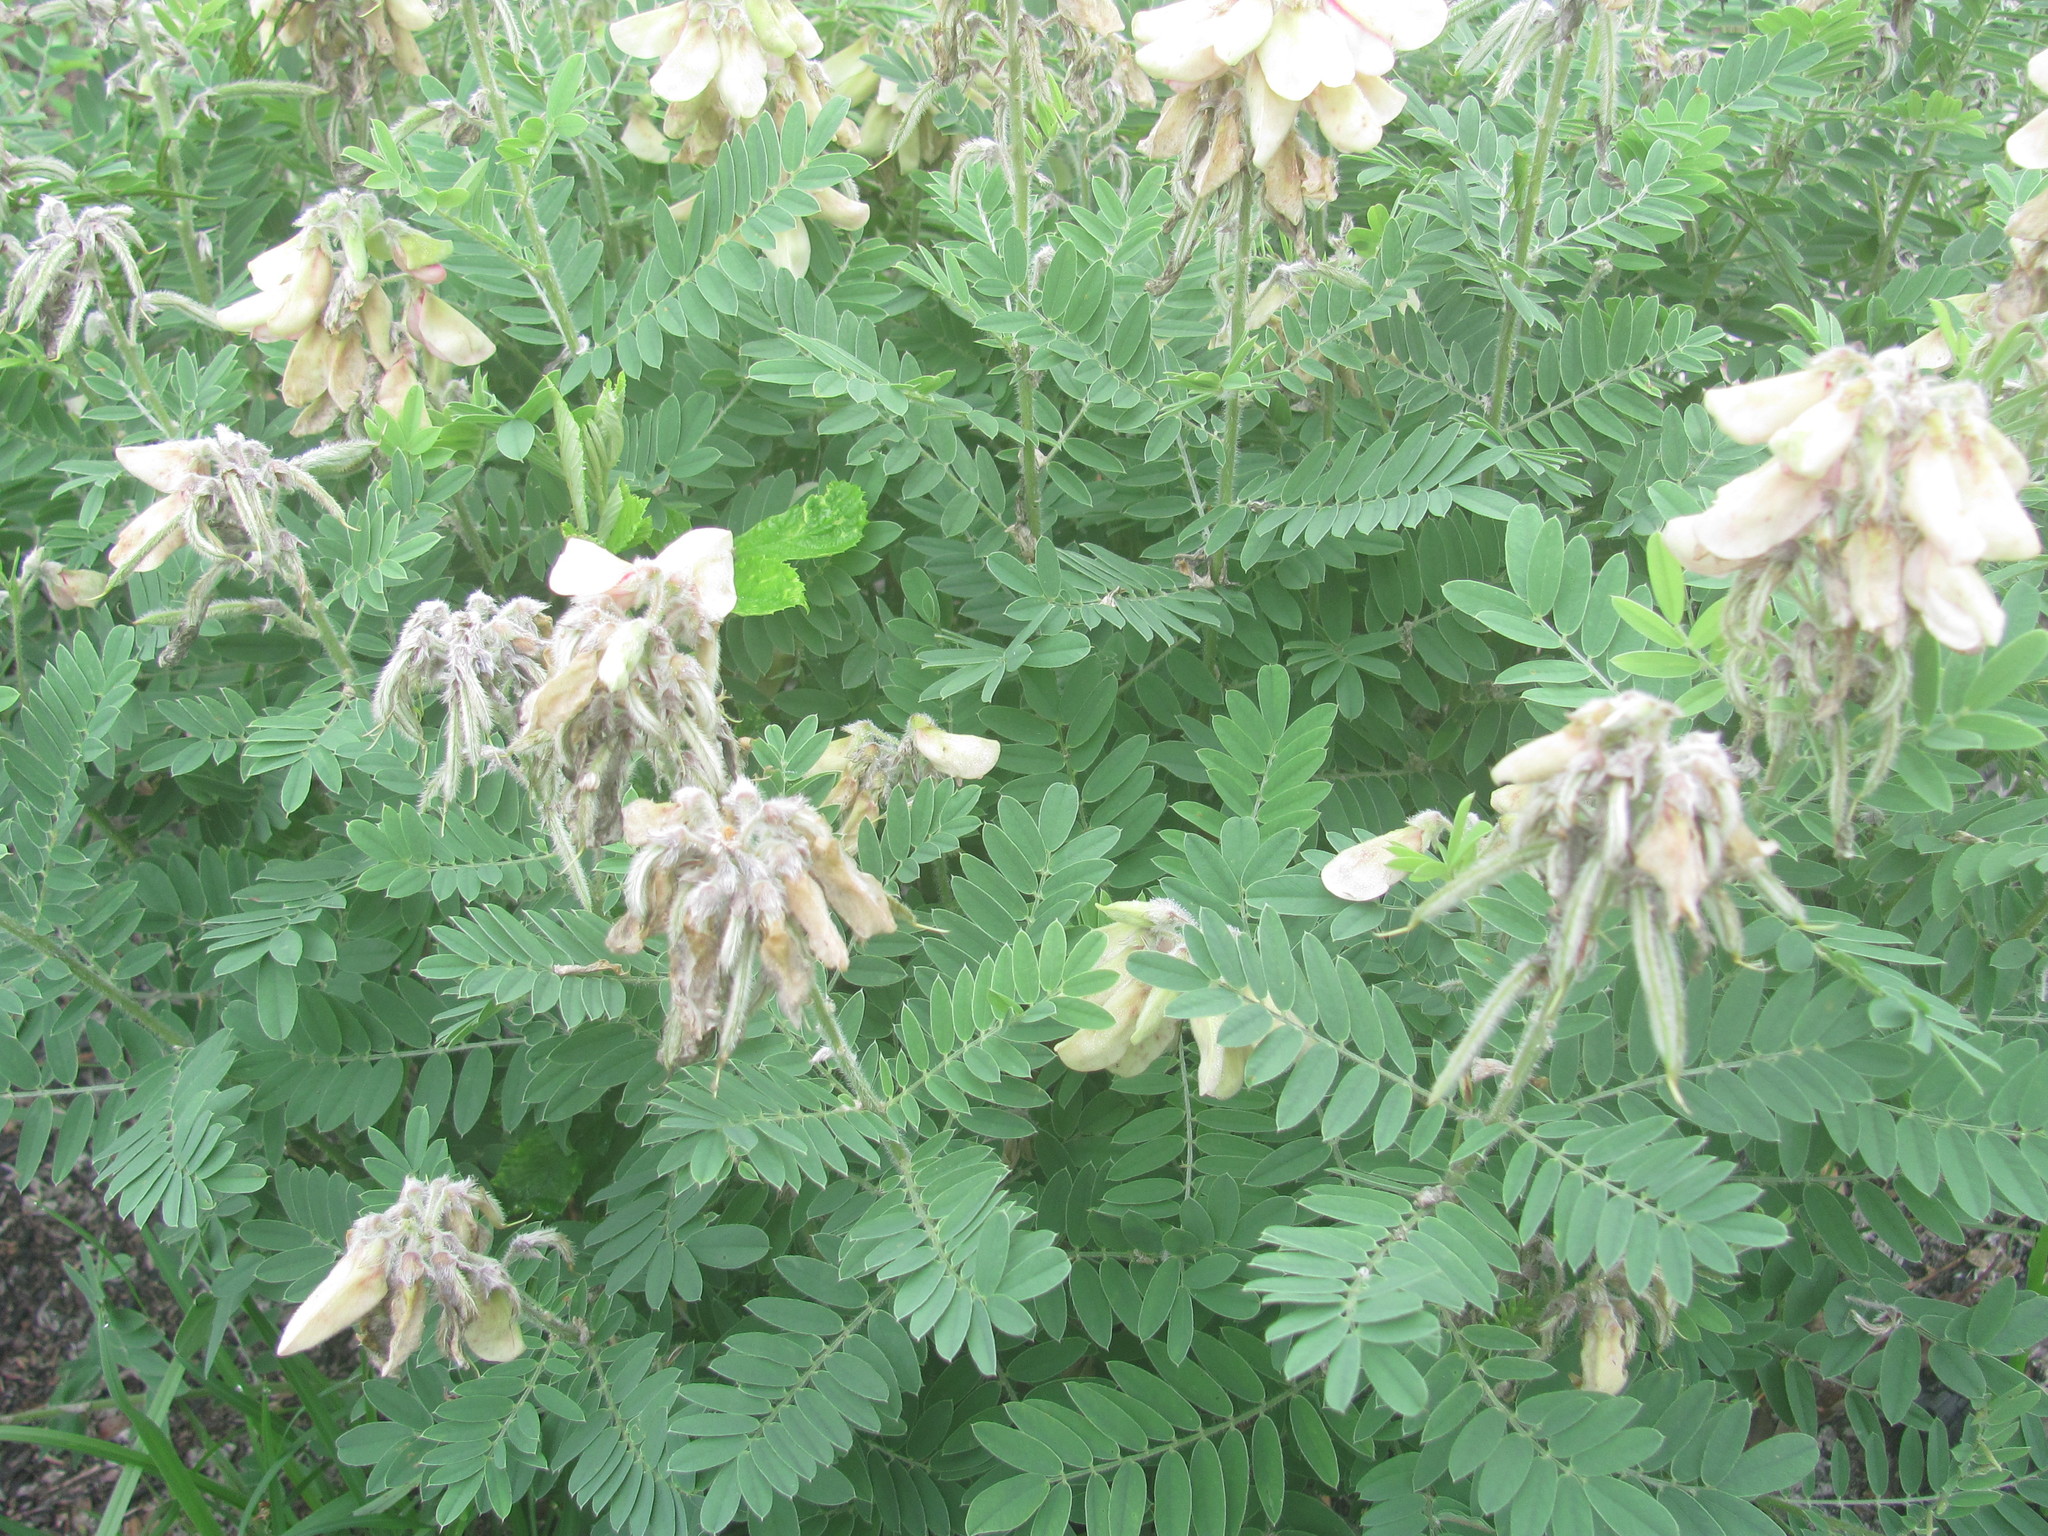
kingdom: Plantae
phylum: Tracheophyta
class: Magnoliopsida
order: Fabales
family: Fabaceae
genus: Tephrosia
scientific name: Tephrosia virginiana
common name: Rabbit-pea
